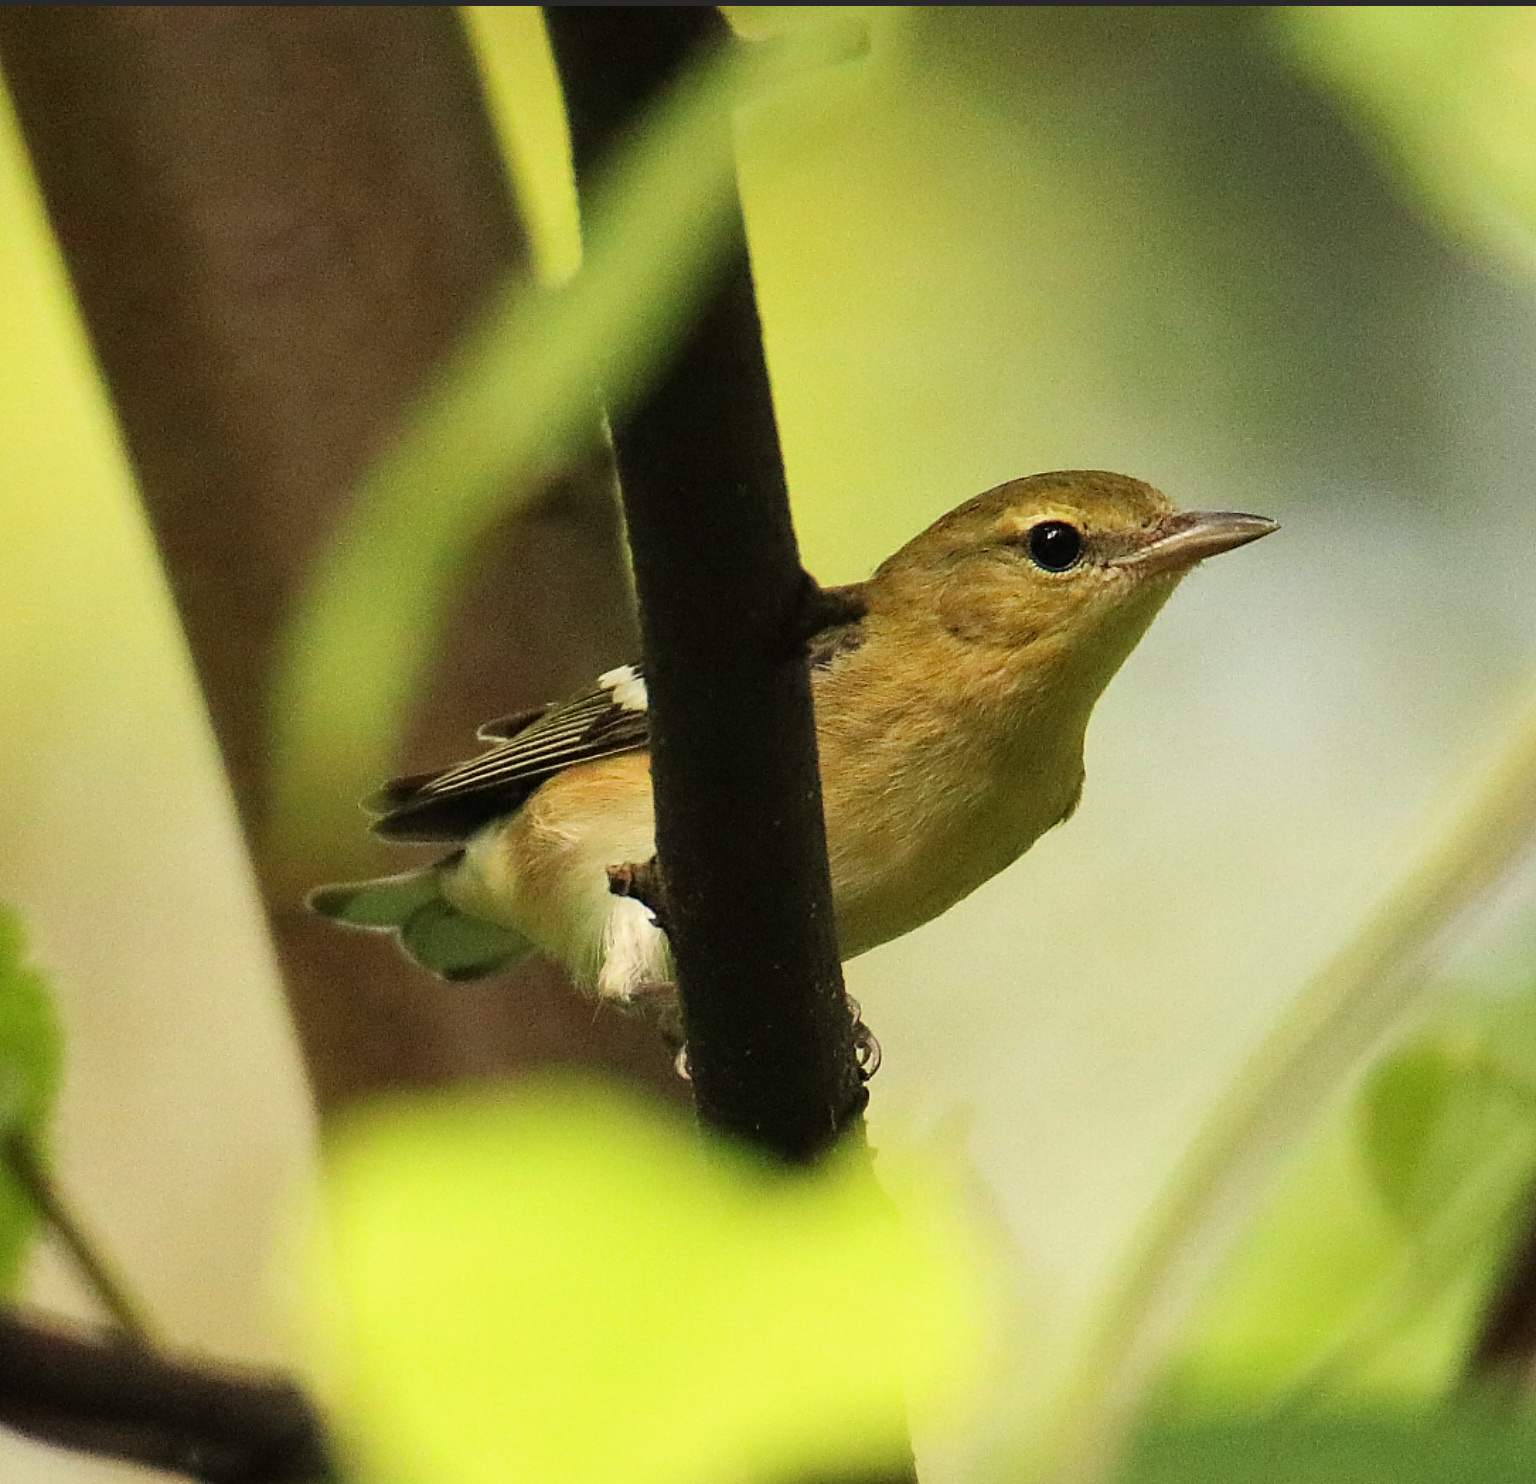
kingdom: Animalia
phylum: Chordata
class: Aves
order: Passeriformes
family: Parulidae
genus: Setophaga
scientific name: Setophaga castanea
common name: Bay-breasted warbler
